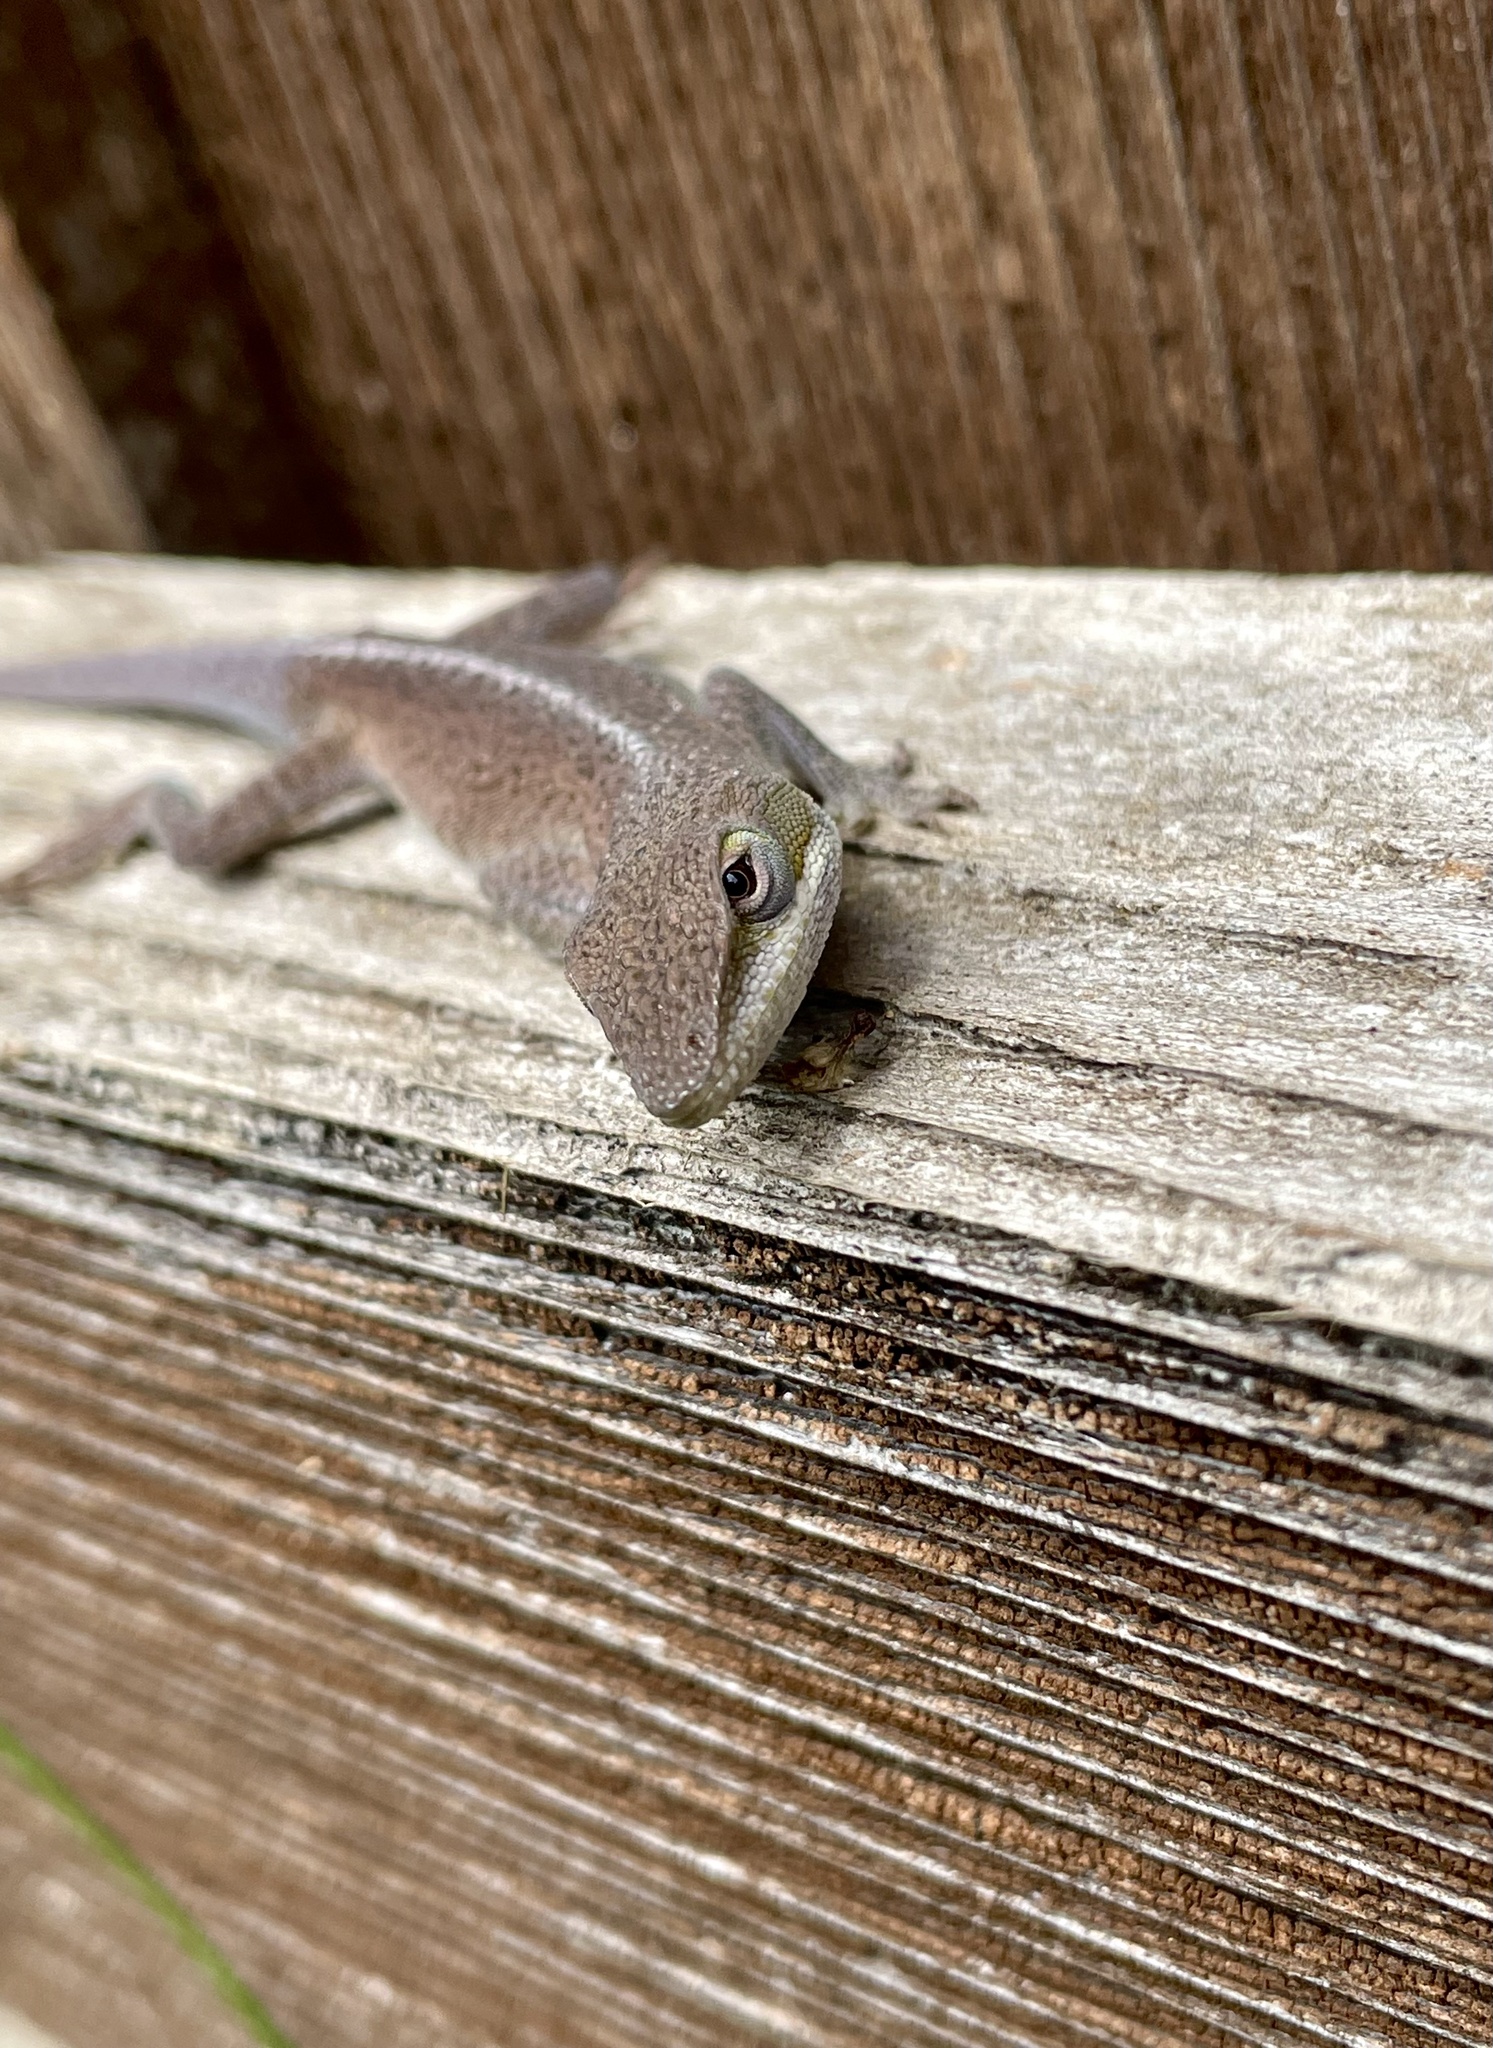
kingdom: Animalia
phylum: Chordata
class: Squamata
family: Dactyloidae
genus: Anolis
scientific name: Anolis carolinensis
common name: Green anole
